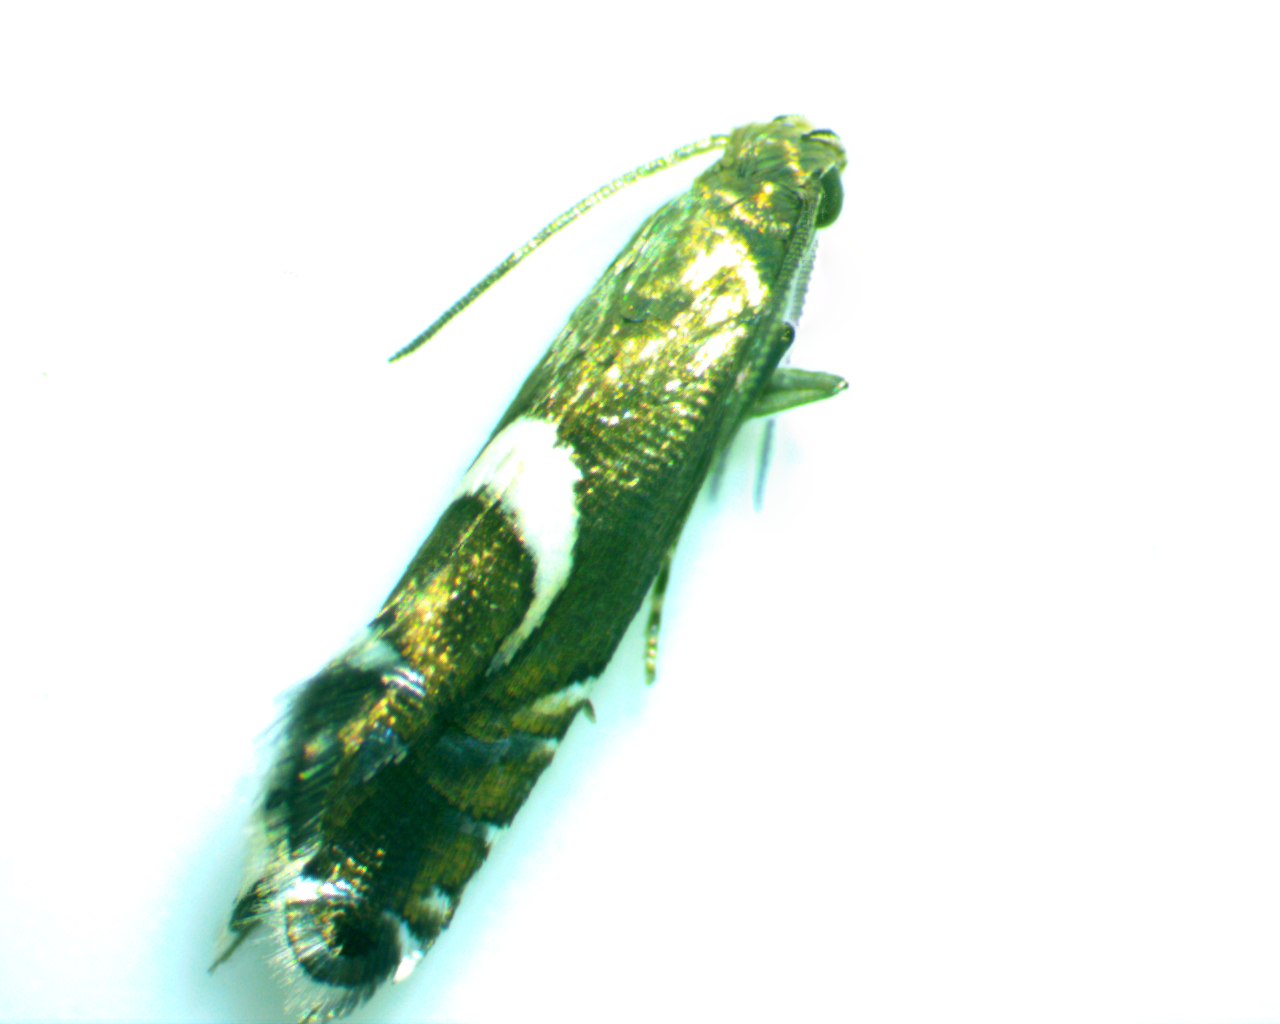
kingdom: Animalia
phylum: Arthropoda
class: Insecta
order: Lepidoptera
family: Glyphipterigidae
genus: Glyphipterix
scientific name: Glyphipterix Diploschizia impigritella
